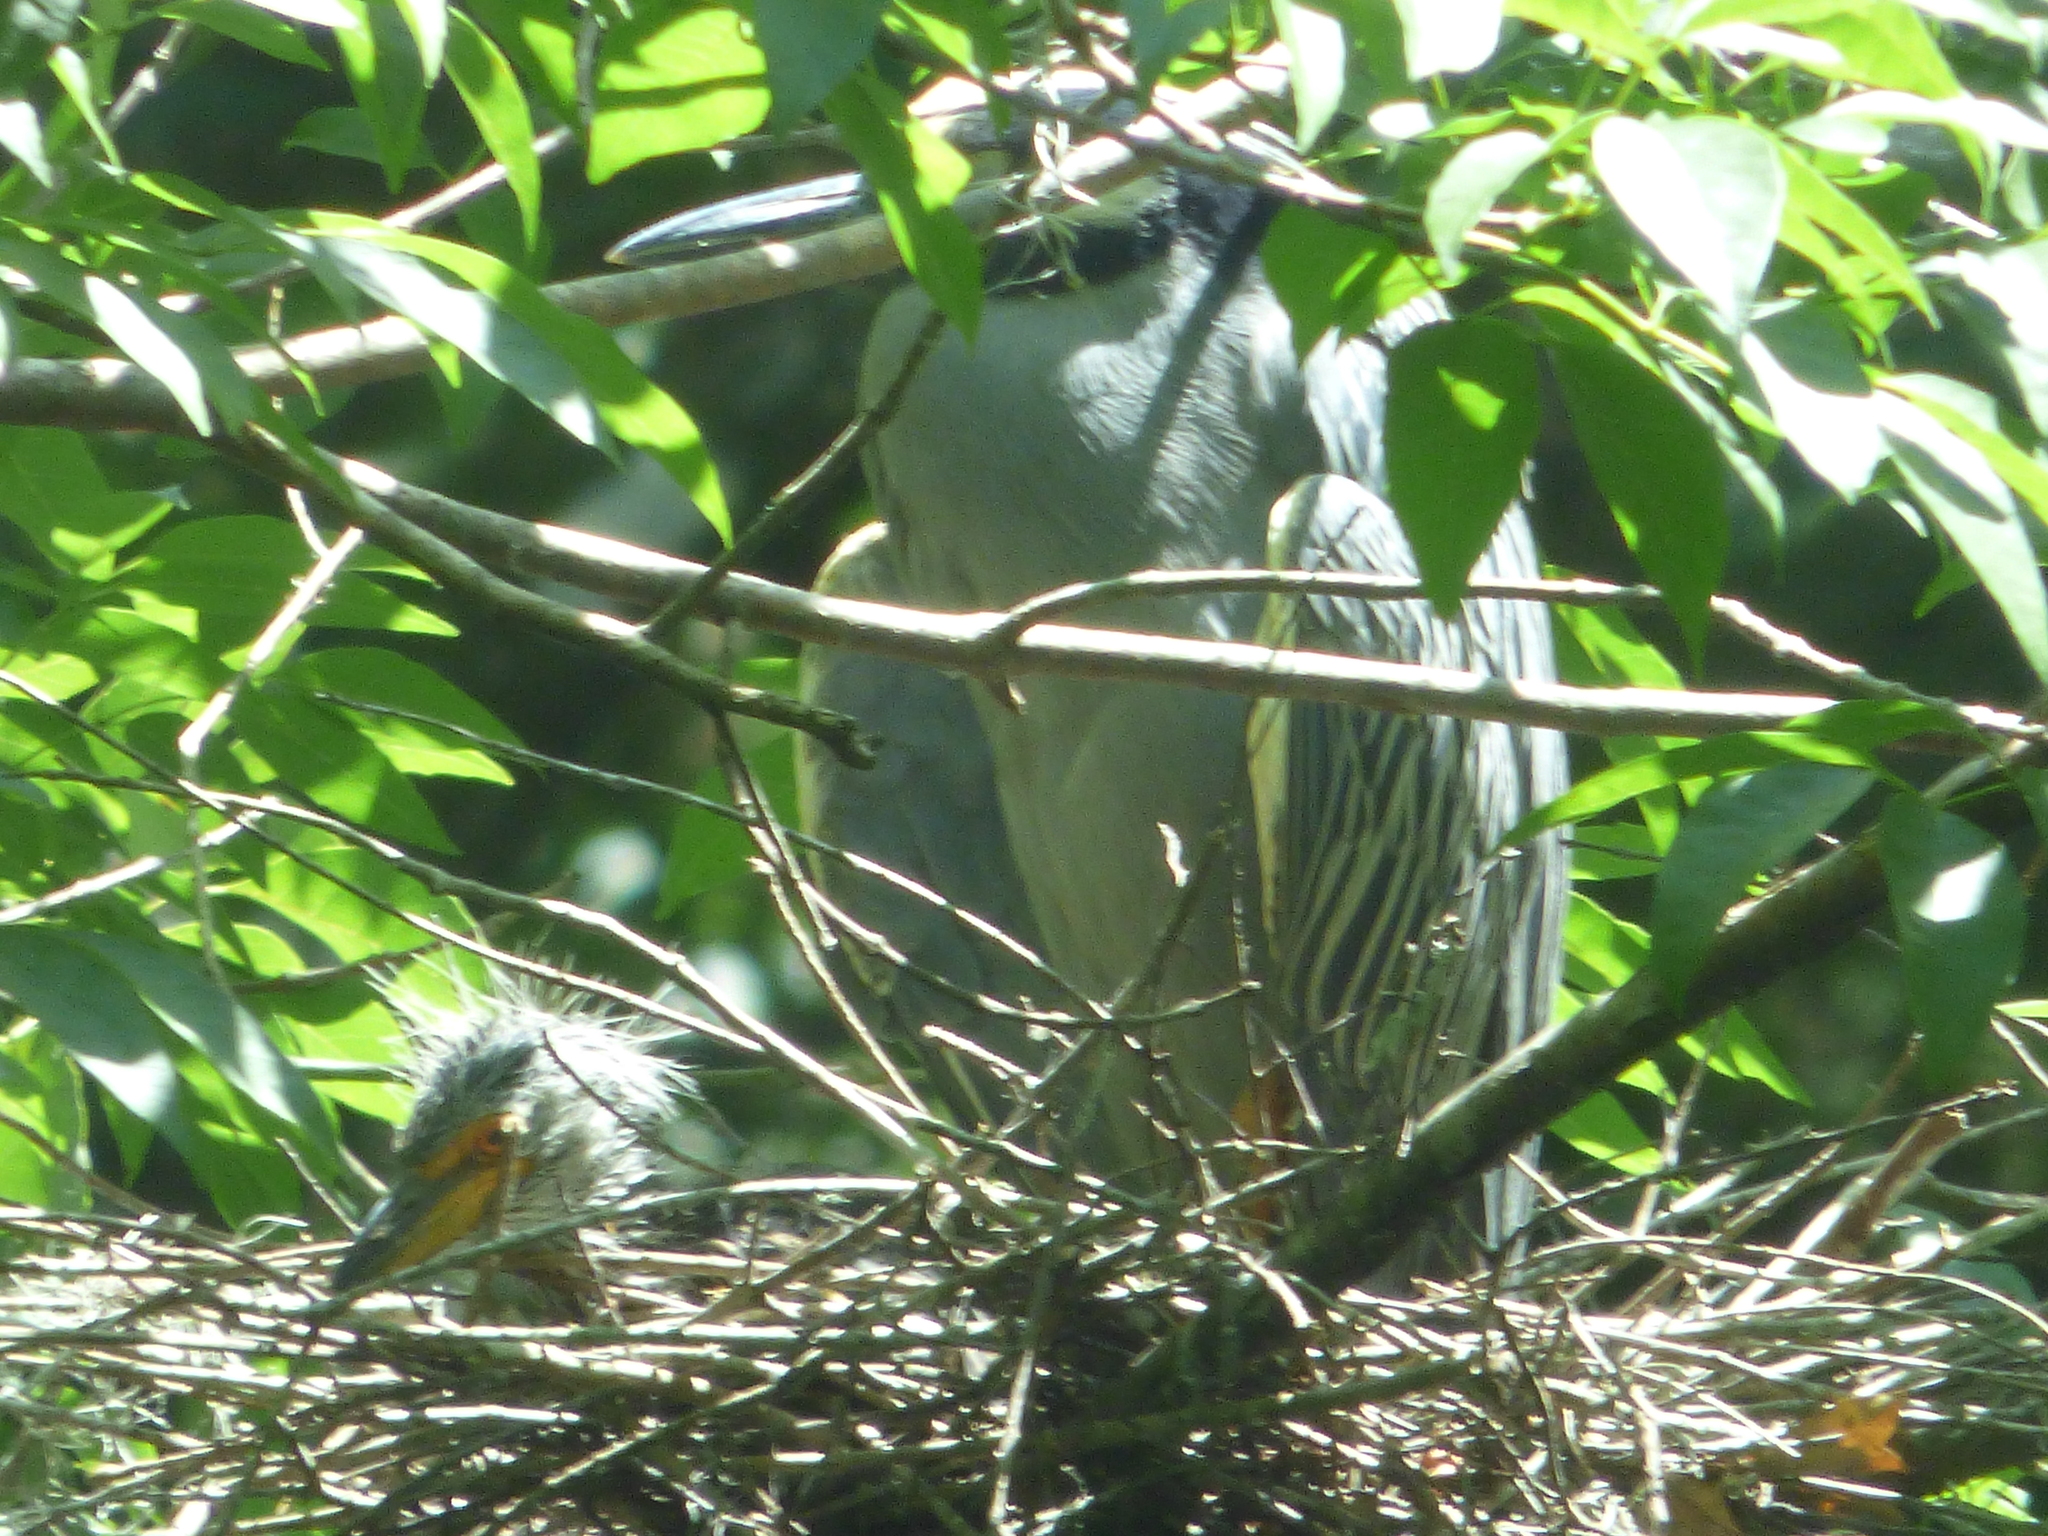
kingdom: Animalia
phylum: Chordata
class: Aves
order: Pelecaniformes
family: Ardeidae
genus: Nyctanassa
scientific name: Nyctanassa violacea
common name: Yellow-crowned night heron
